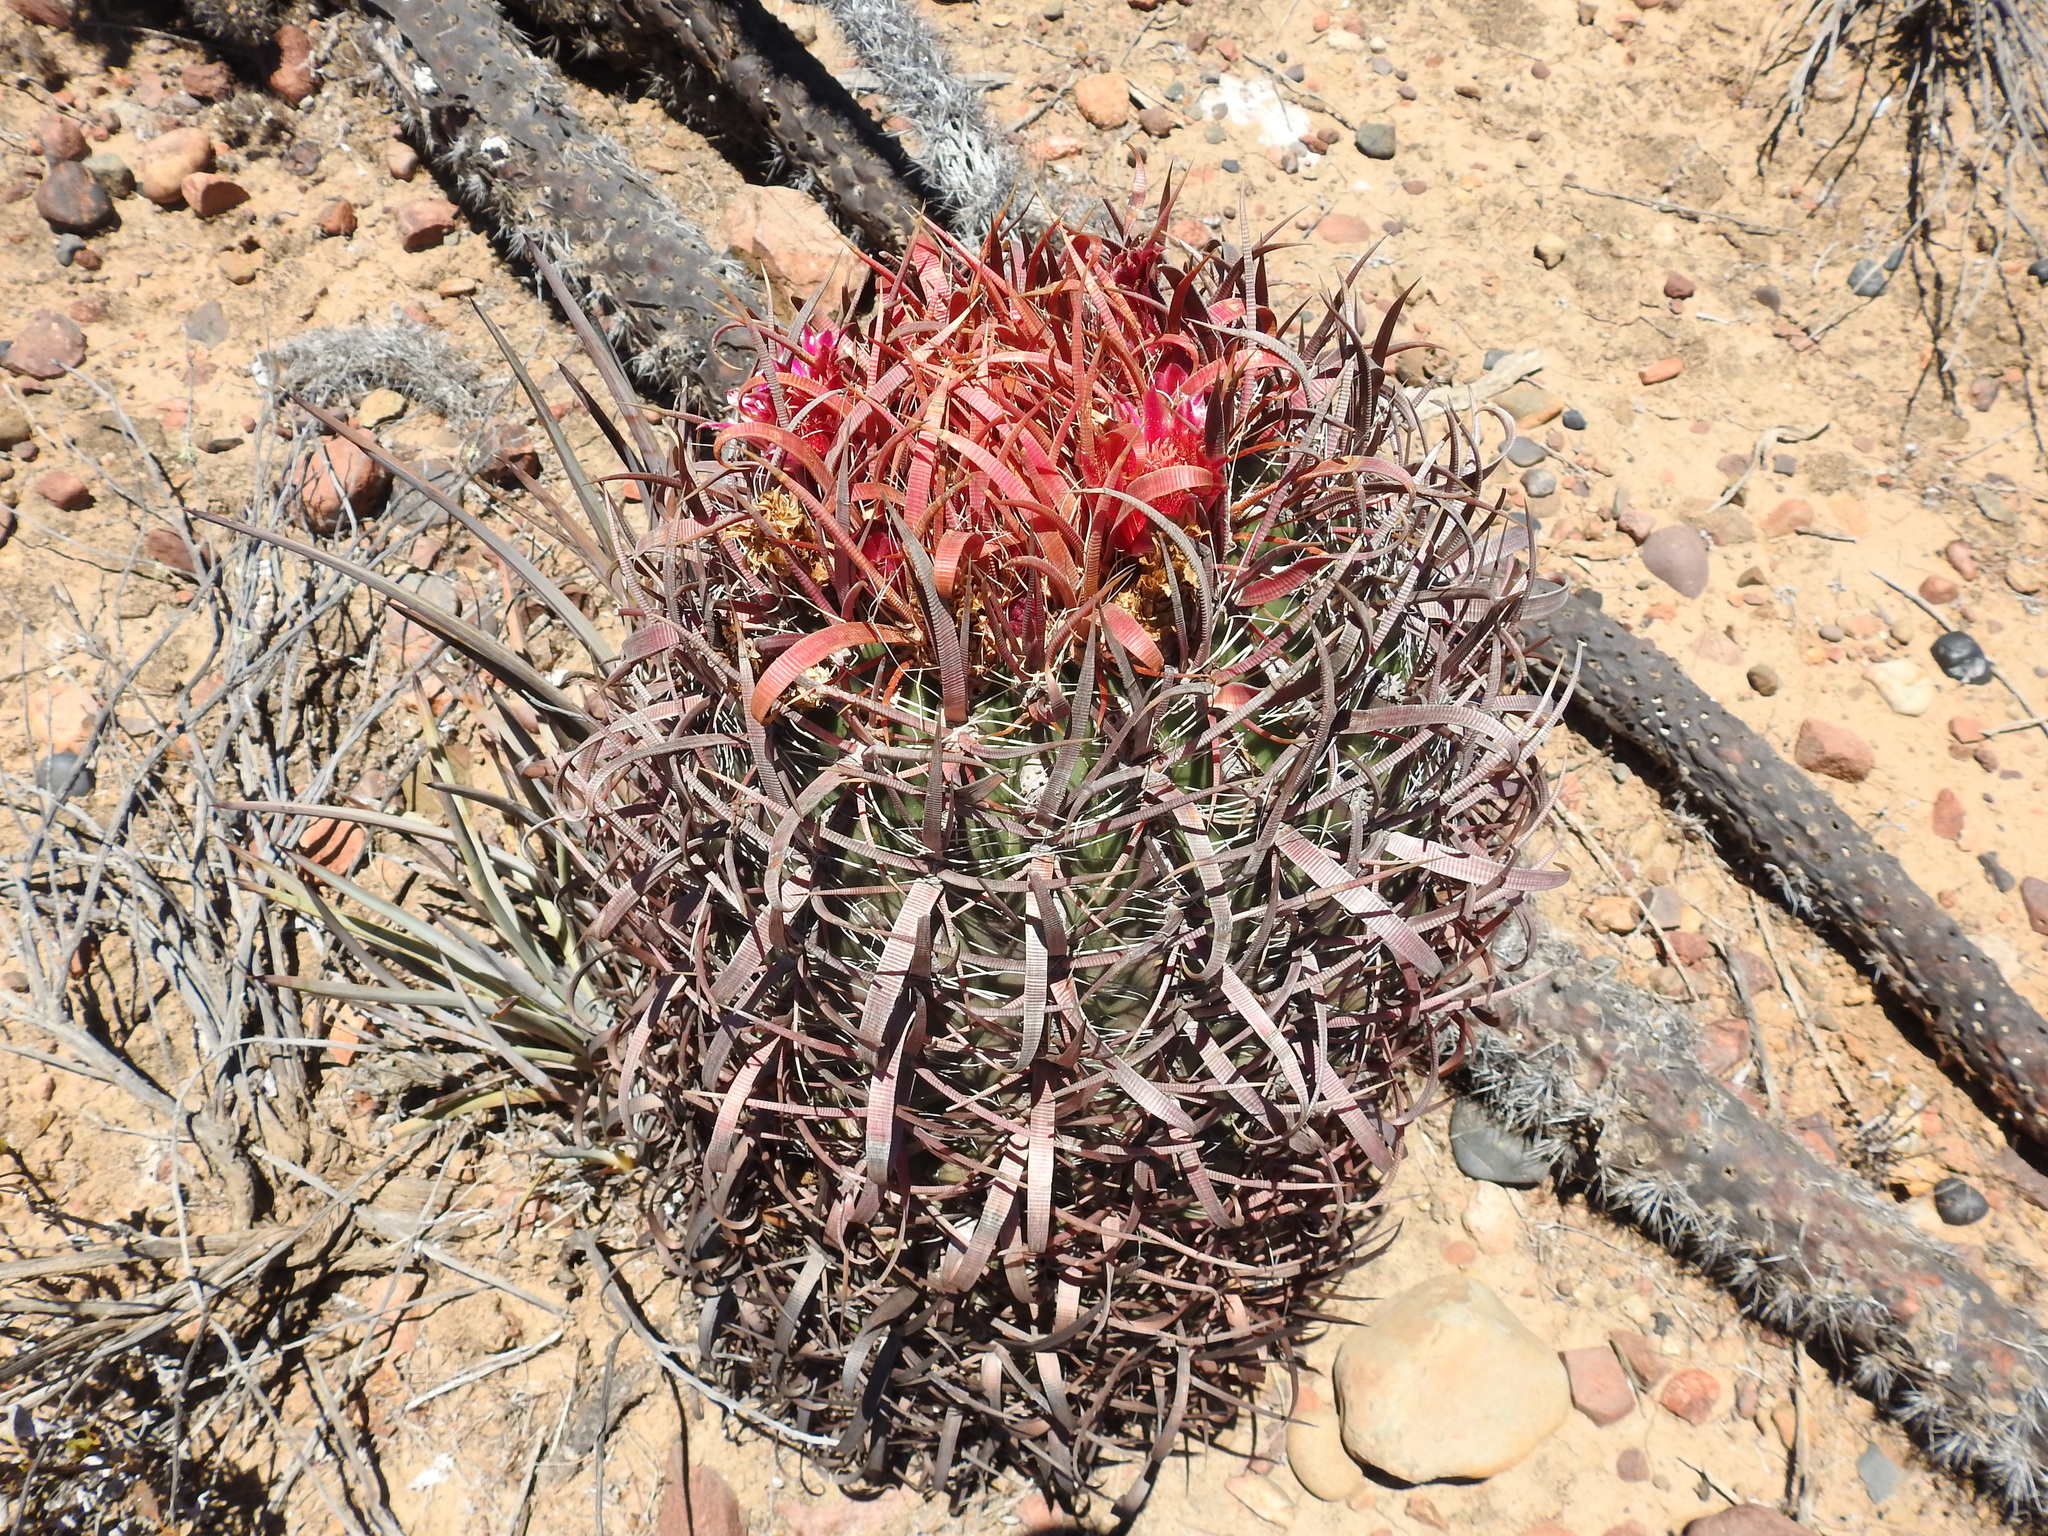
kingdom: Plantae
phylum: Tracheophyta
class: Magnoliopsida
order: Caryophyllales
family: Cactaceae
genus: Ferocactus
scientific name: Ferocactus gracilis
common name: Fire barrel cactus
